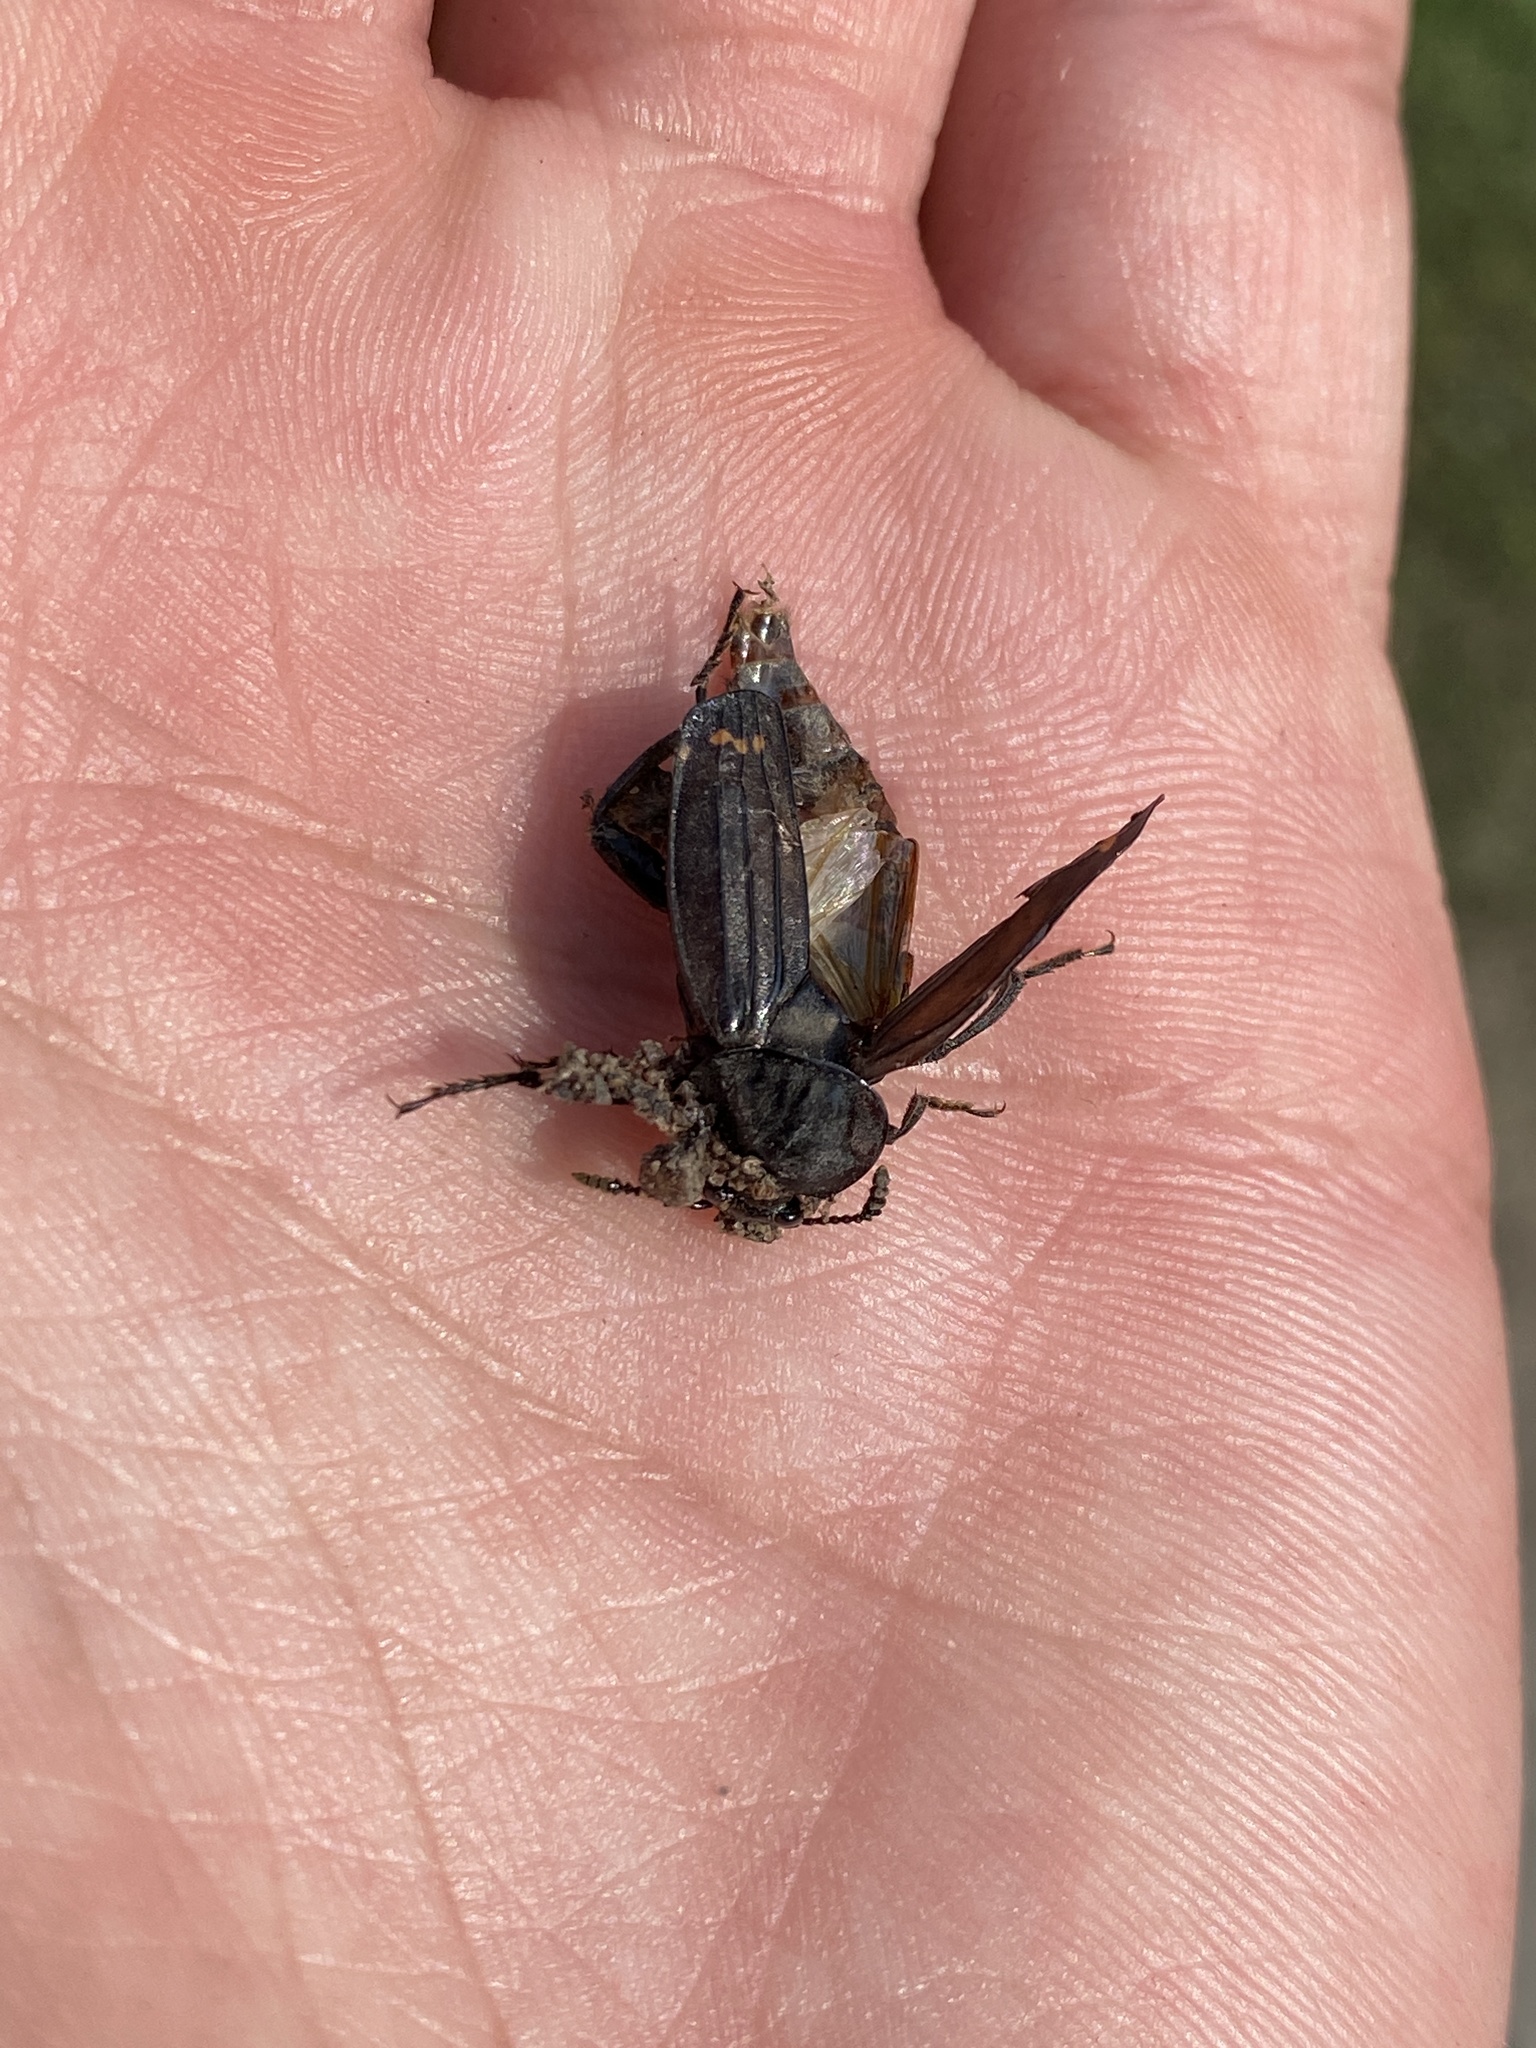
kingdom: Animalia
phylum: Arthropoda
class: Insecta
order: Coleoptera
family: Staphylinidae
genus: Necrodes
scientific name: Necrodes surinamensis
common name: Red-lined carrion beetle
